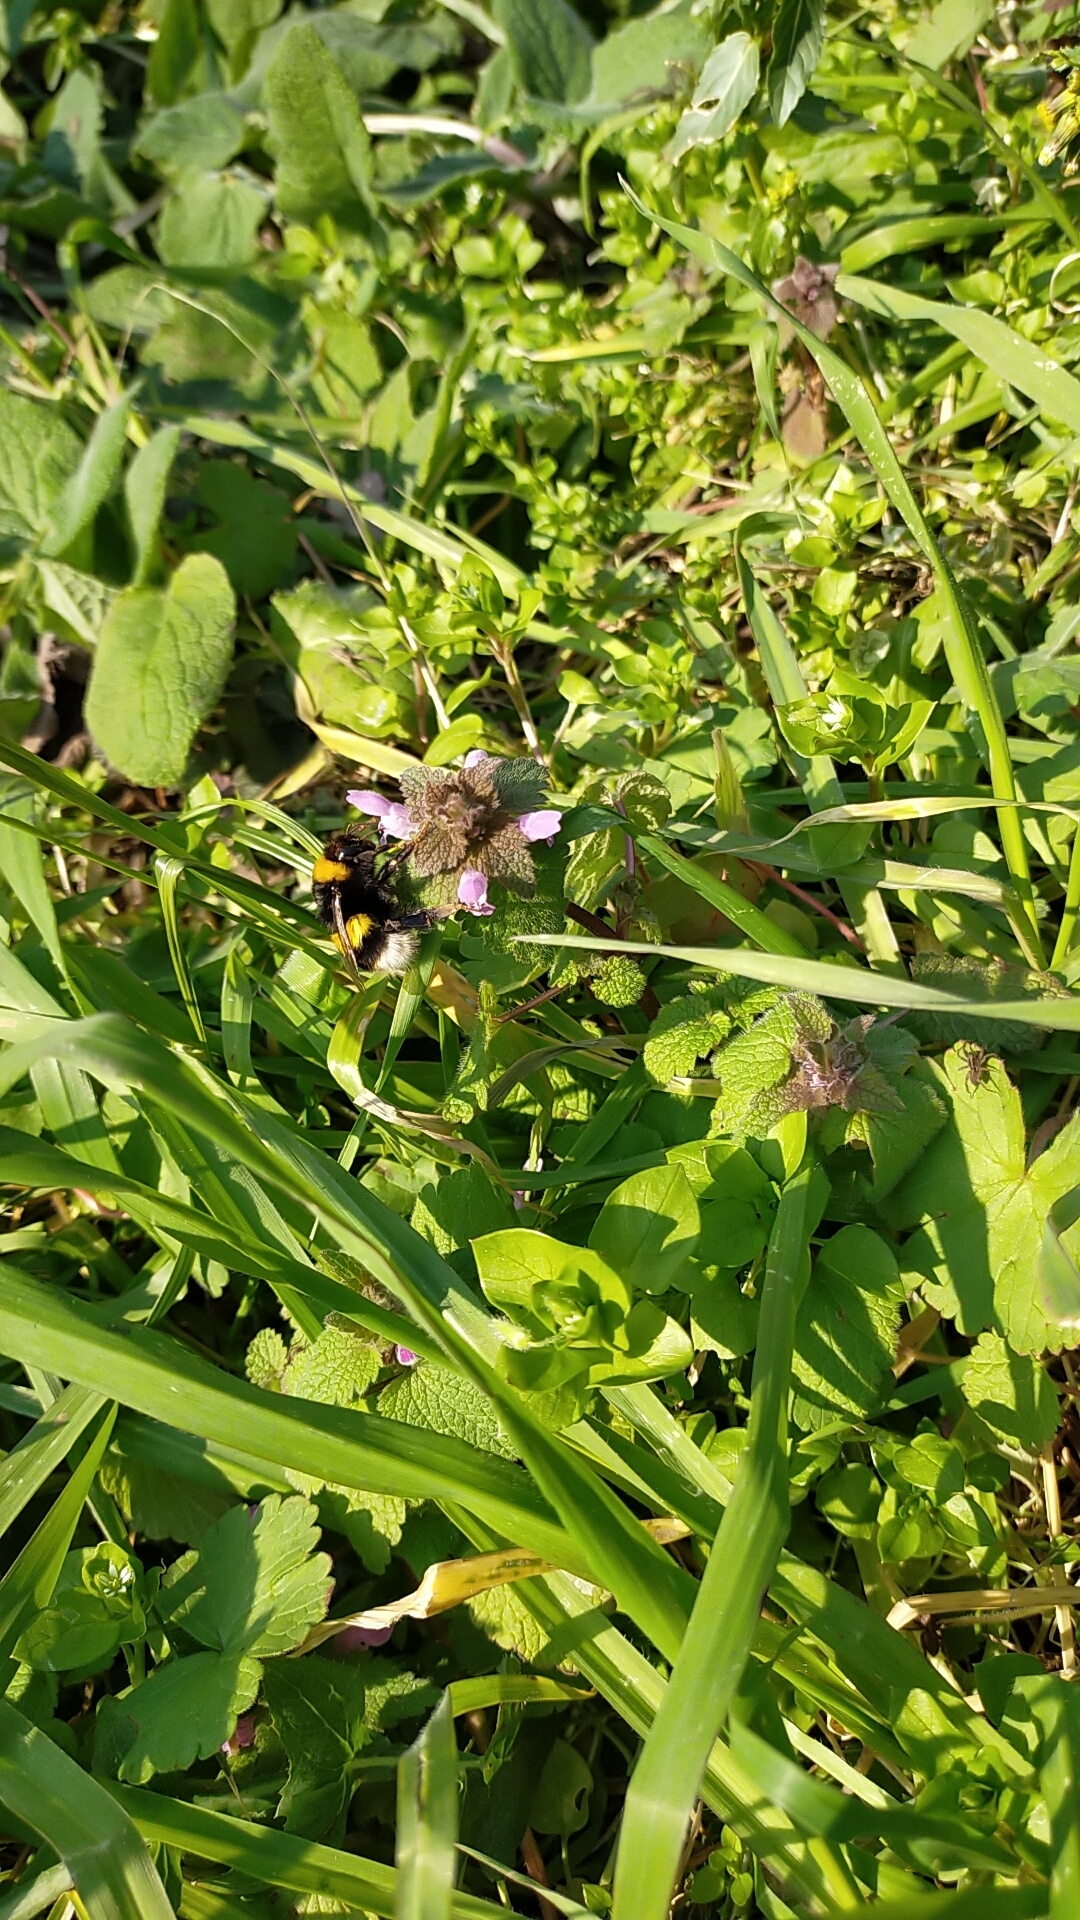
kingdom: Animalia
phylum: Arthropoda
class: Insecta
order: Hymenoptera
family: Apidae
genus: Bombus
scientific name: Bombus
